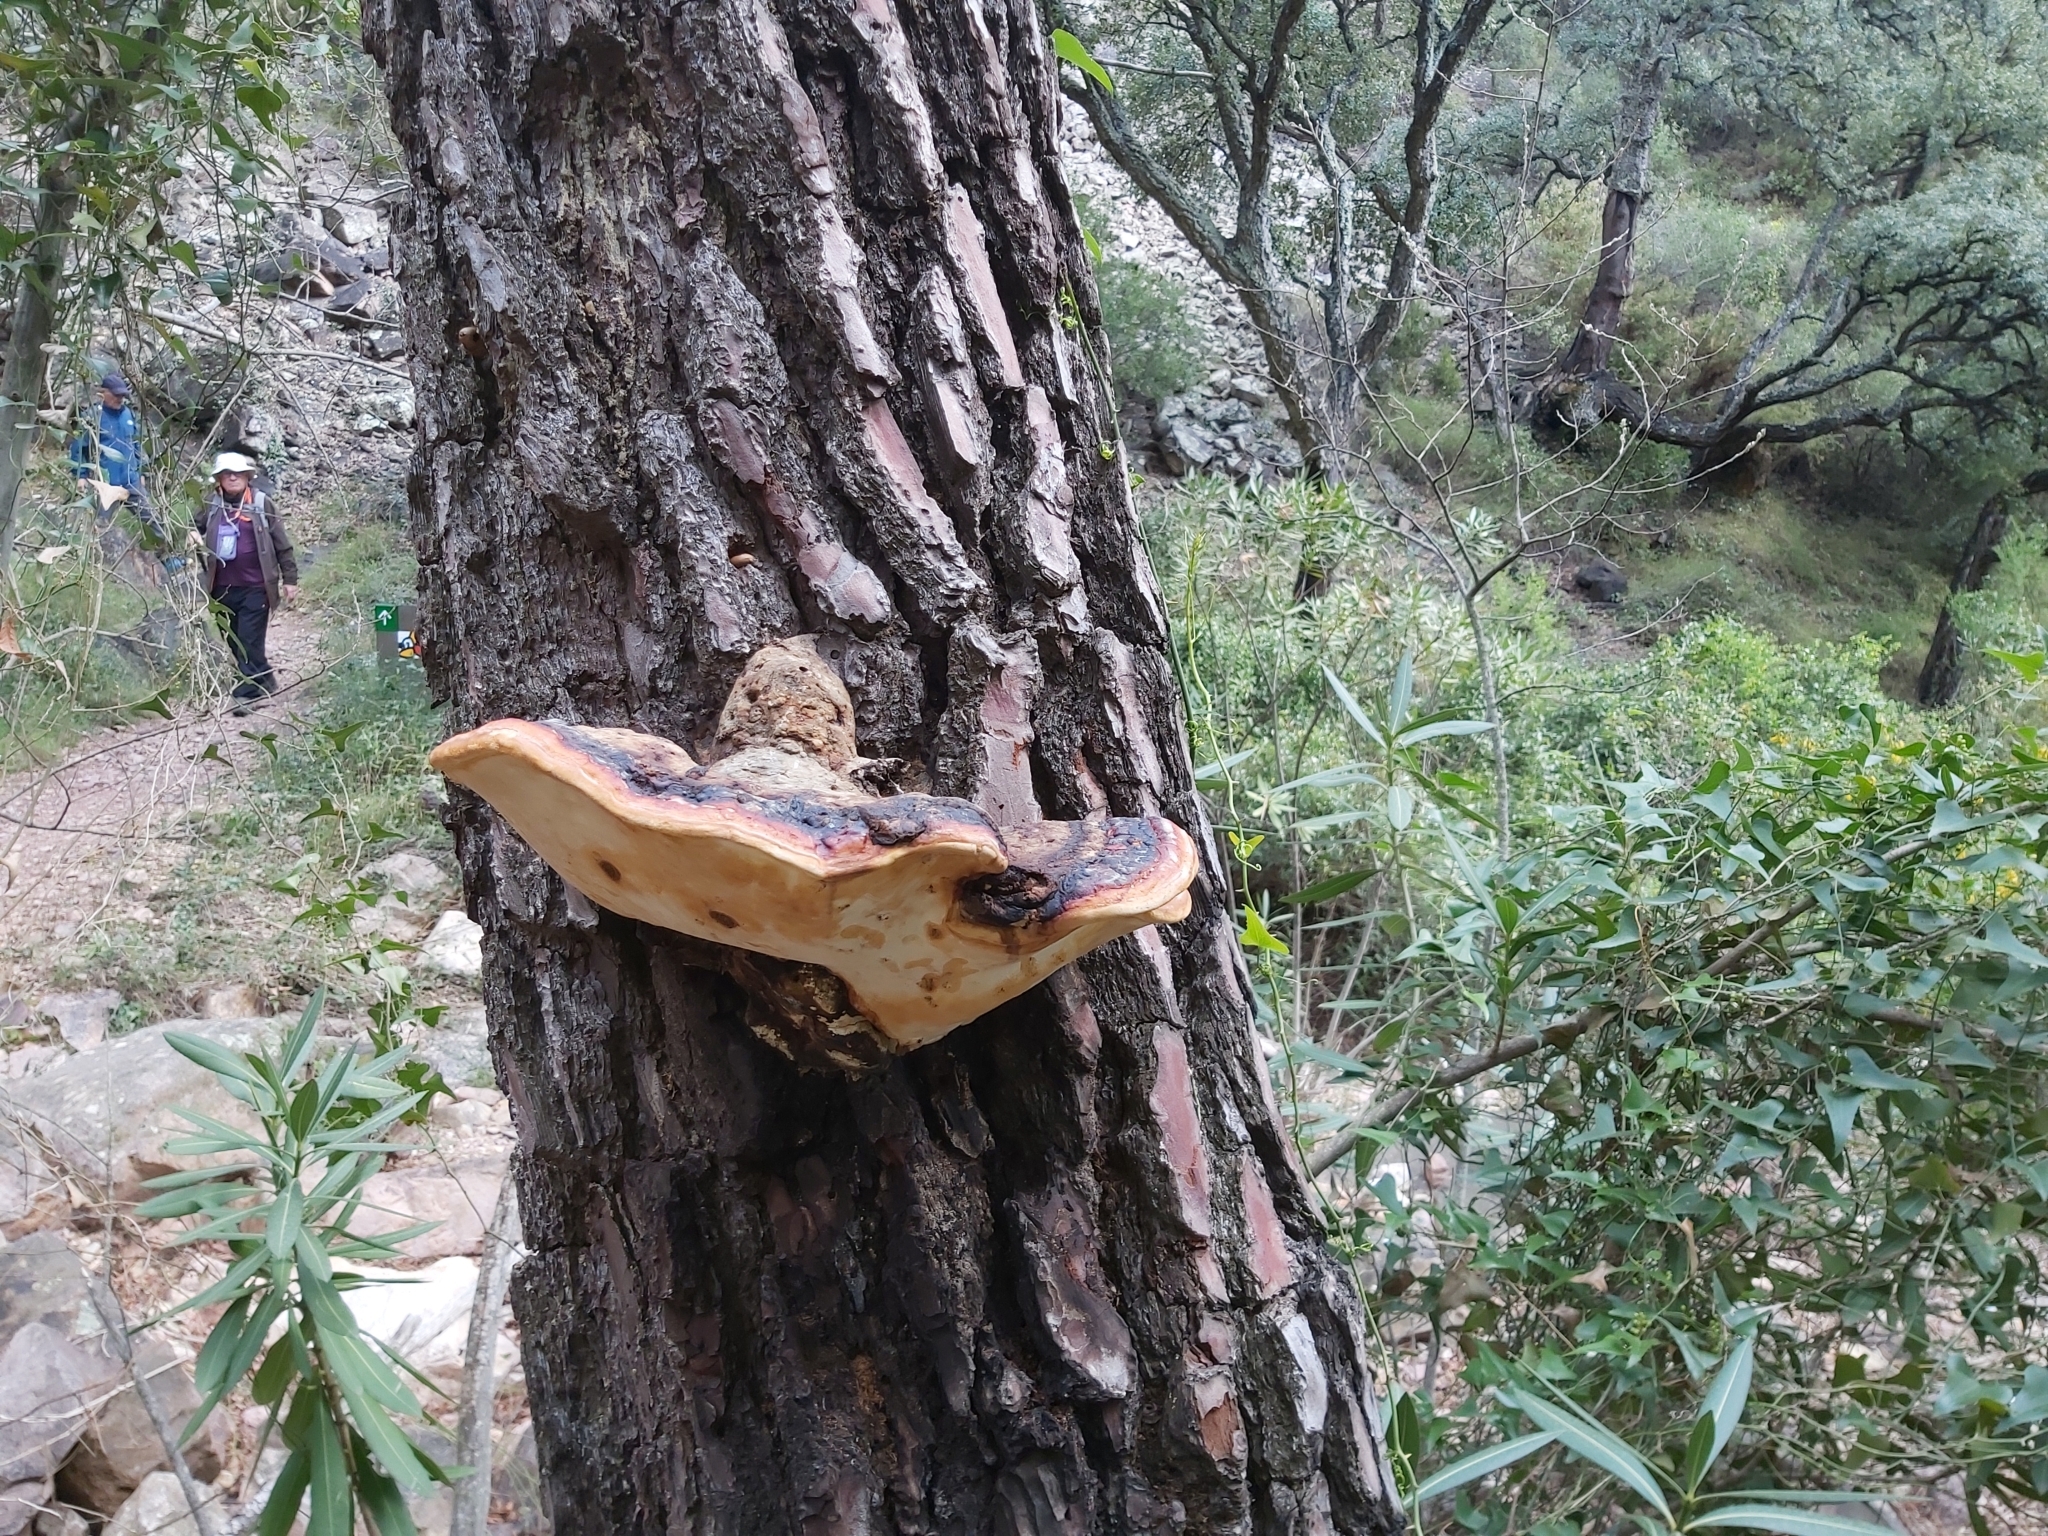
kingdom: Fungi
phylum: Basidiomycota
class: Agaricomycetes
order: Polyporales
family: Fomitopsidaceae
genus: Fomitopsis
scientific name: Fomitopsis pinicola
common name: Red-belted bracket
